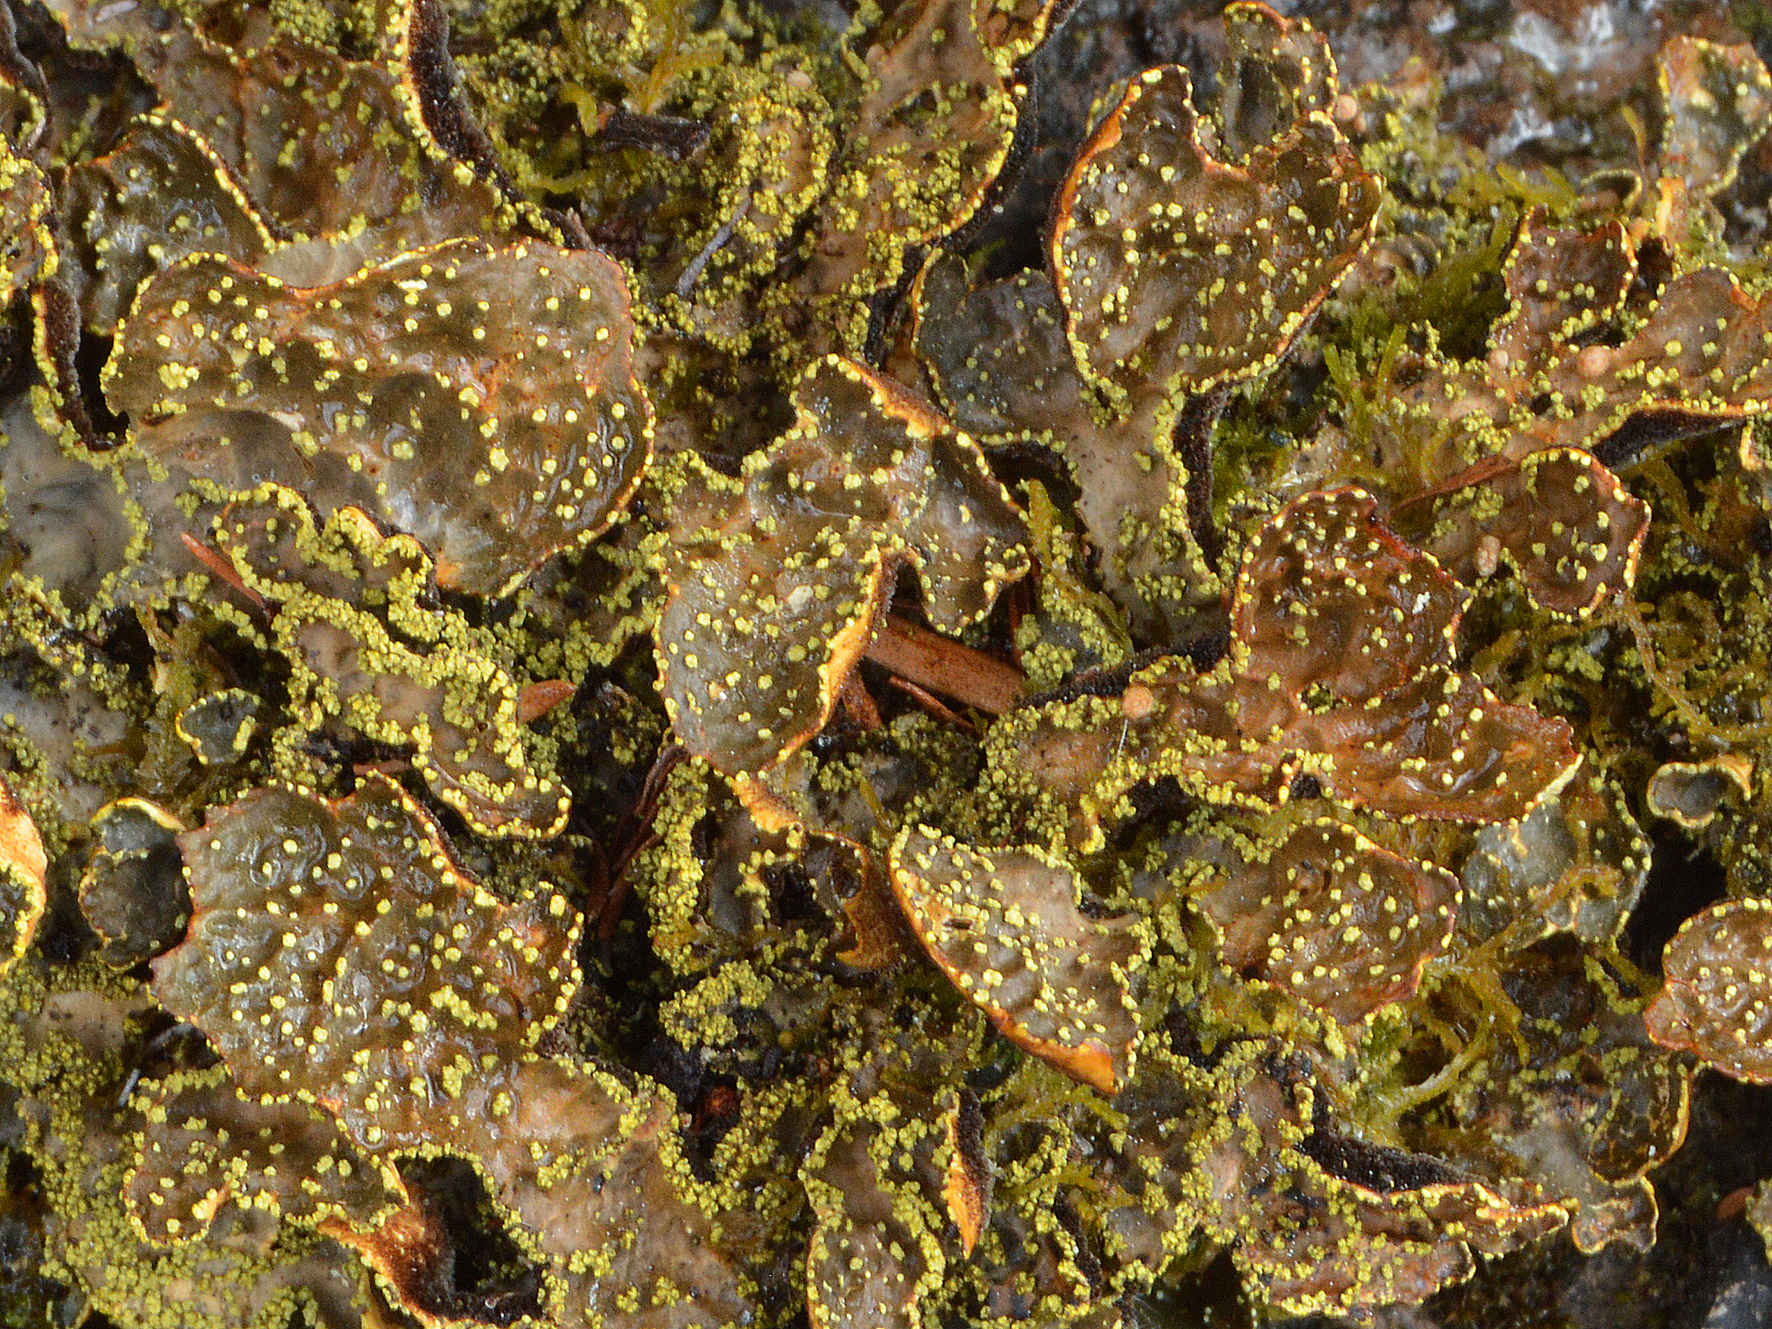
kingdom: Fungi
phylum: Ascomycota
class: Lecanoromycetes
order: Peltigerales
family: Lobariaceae
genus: Pseudocyphellaria
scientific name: Pseudocyphellaria crocata
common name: Golden specklebelly
